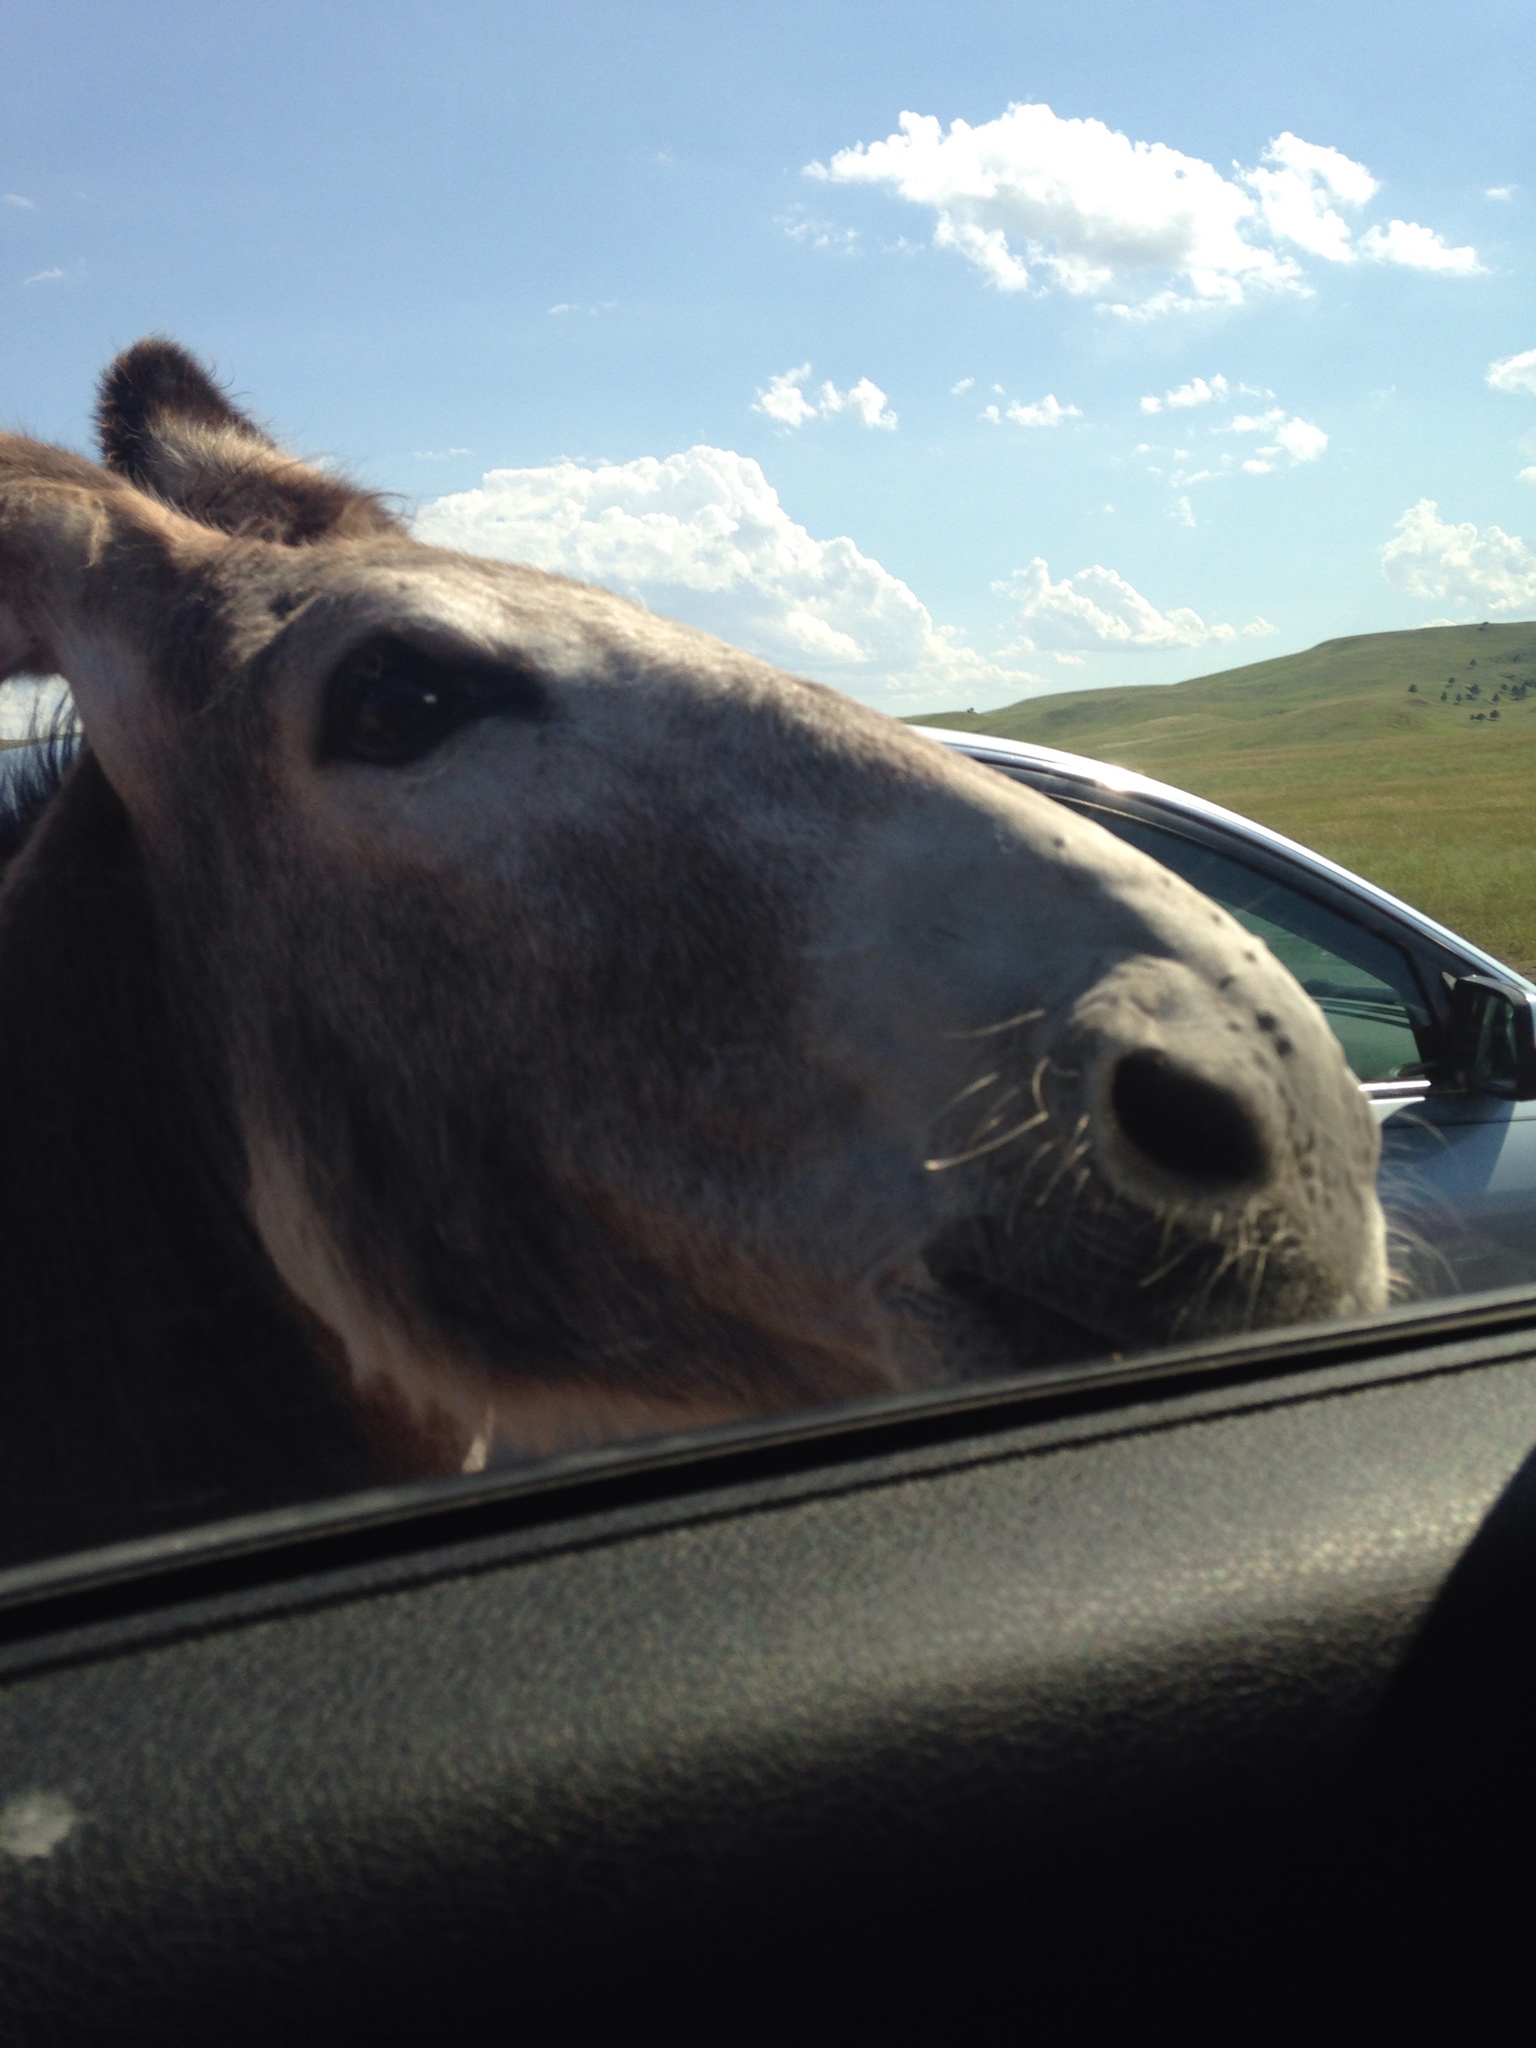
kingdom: Animalia
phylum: Chordata
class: Mammalia
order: Perissodactyla
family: Equidae
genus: Equus
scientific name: Equus asinus
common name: Ass
